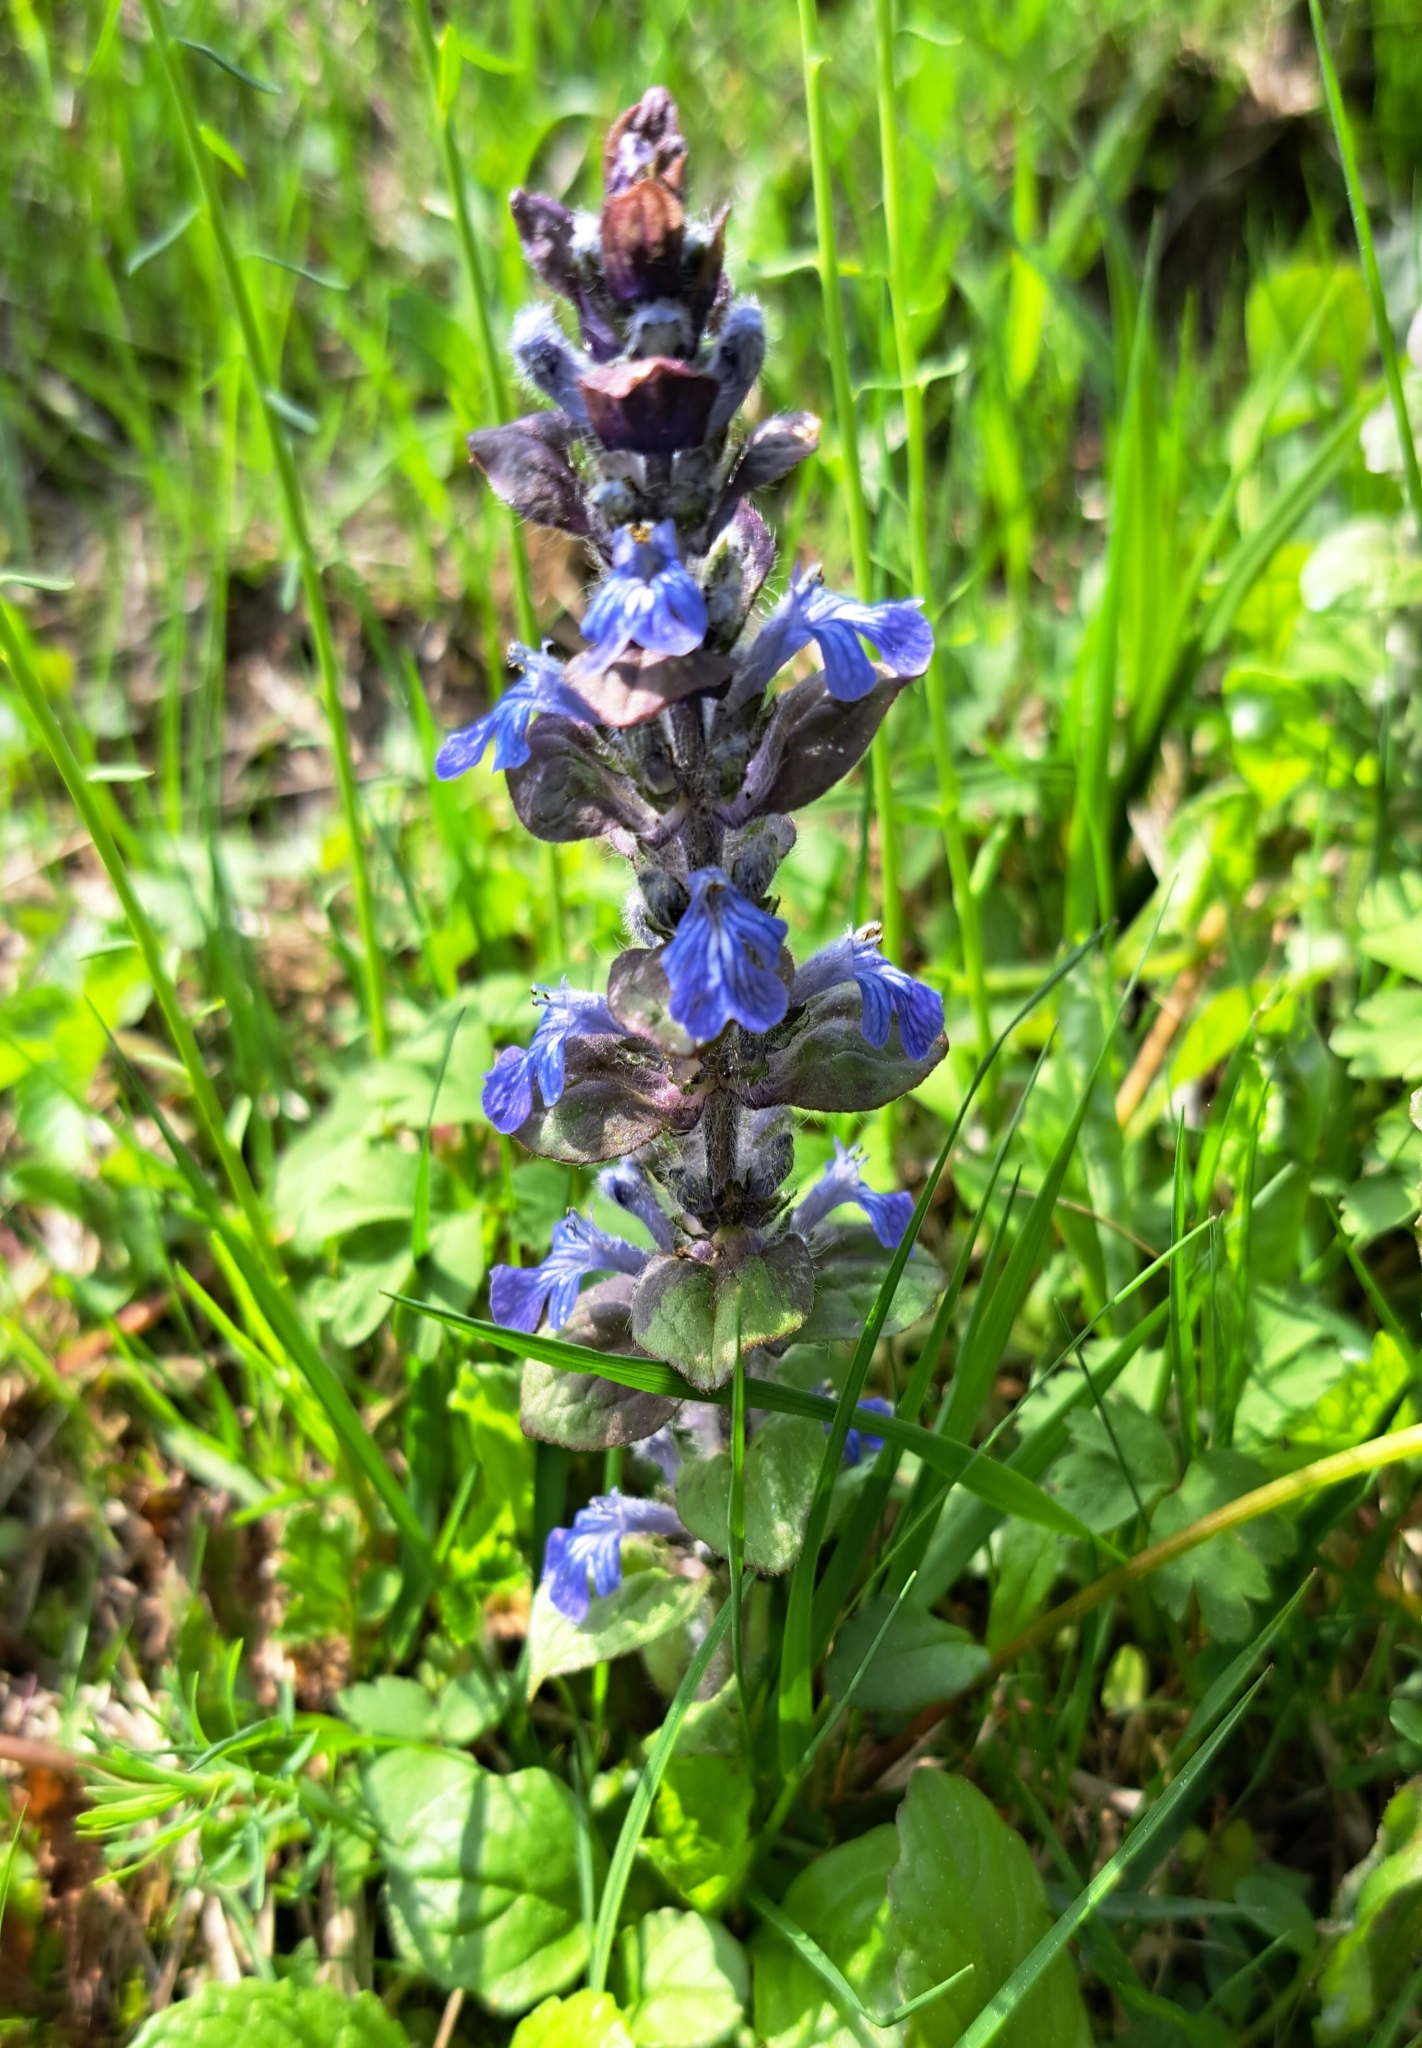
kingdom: Plantae
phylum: Tracheophyta
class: Magnoliopsida
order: Lamiales
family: Lamiaceae
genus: Ajuga
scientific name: Ajuga reptans
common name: Bugle
